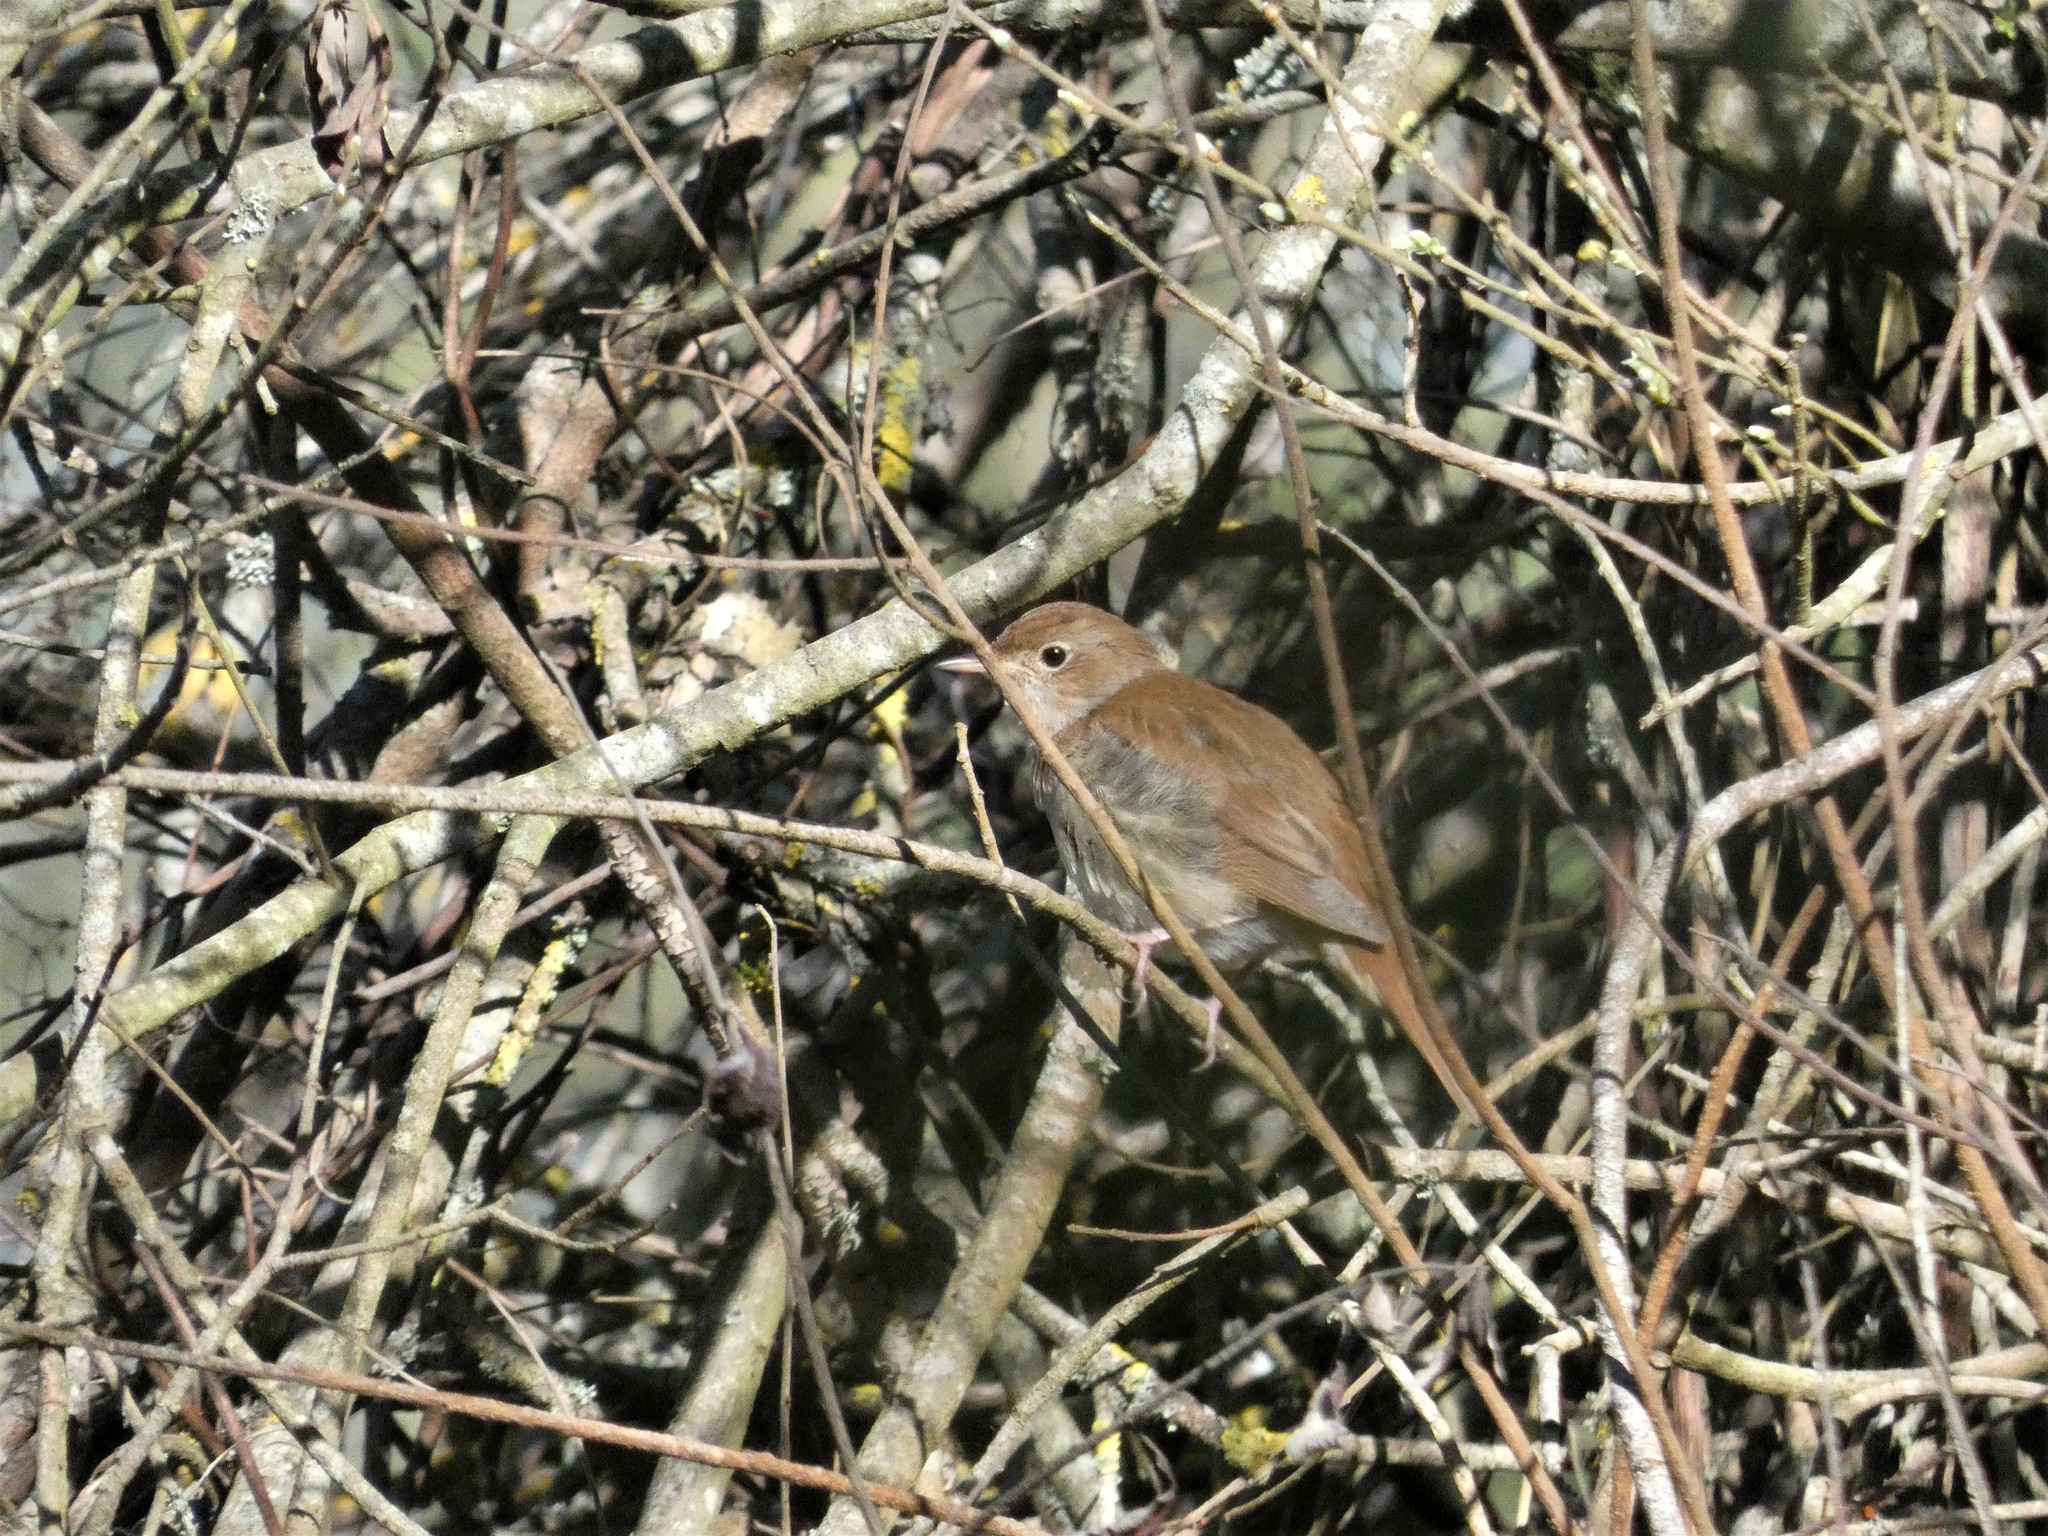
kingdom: Animalia
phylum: Chordata
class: Aves
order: Passeriformes
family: Muscicapidae
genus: Luscinia
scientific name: Luscinia megarhynchos
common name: Common nightingale
